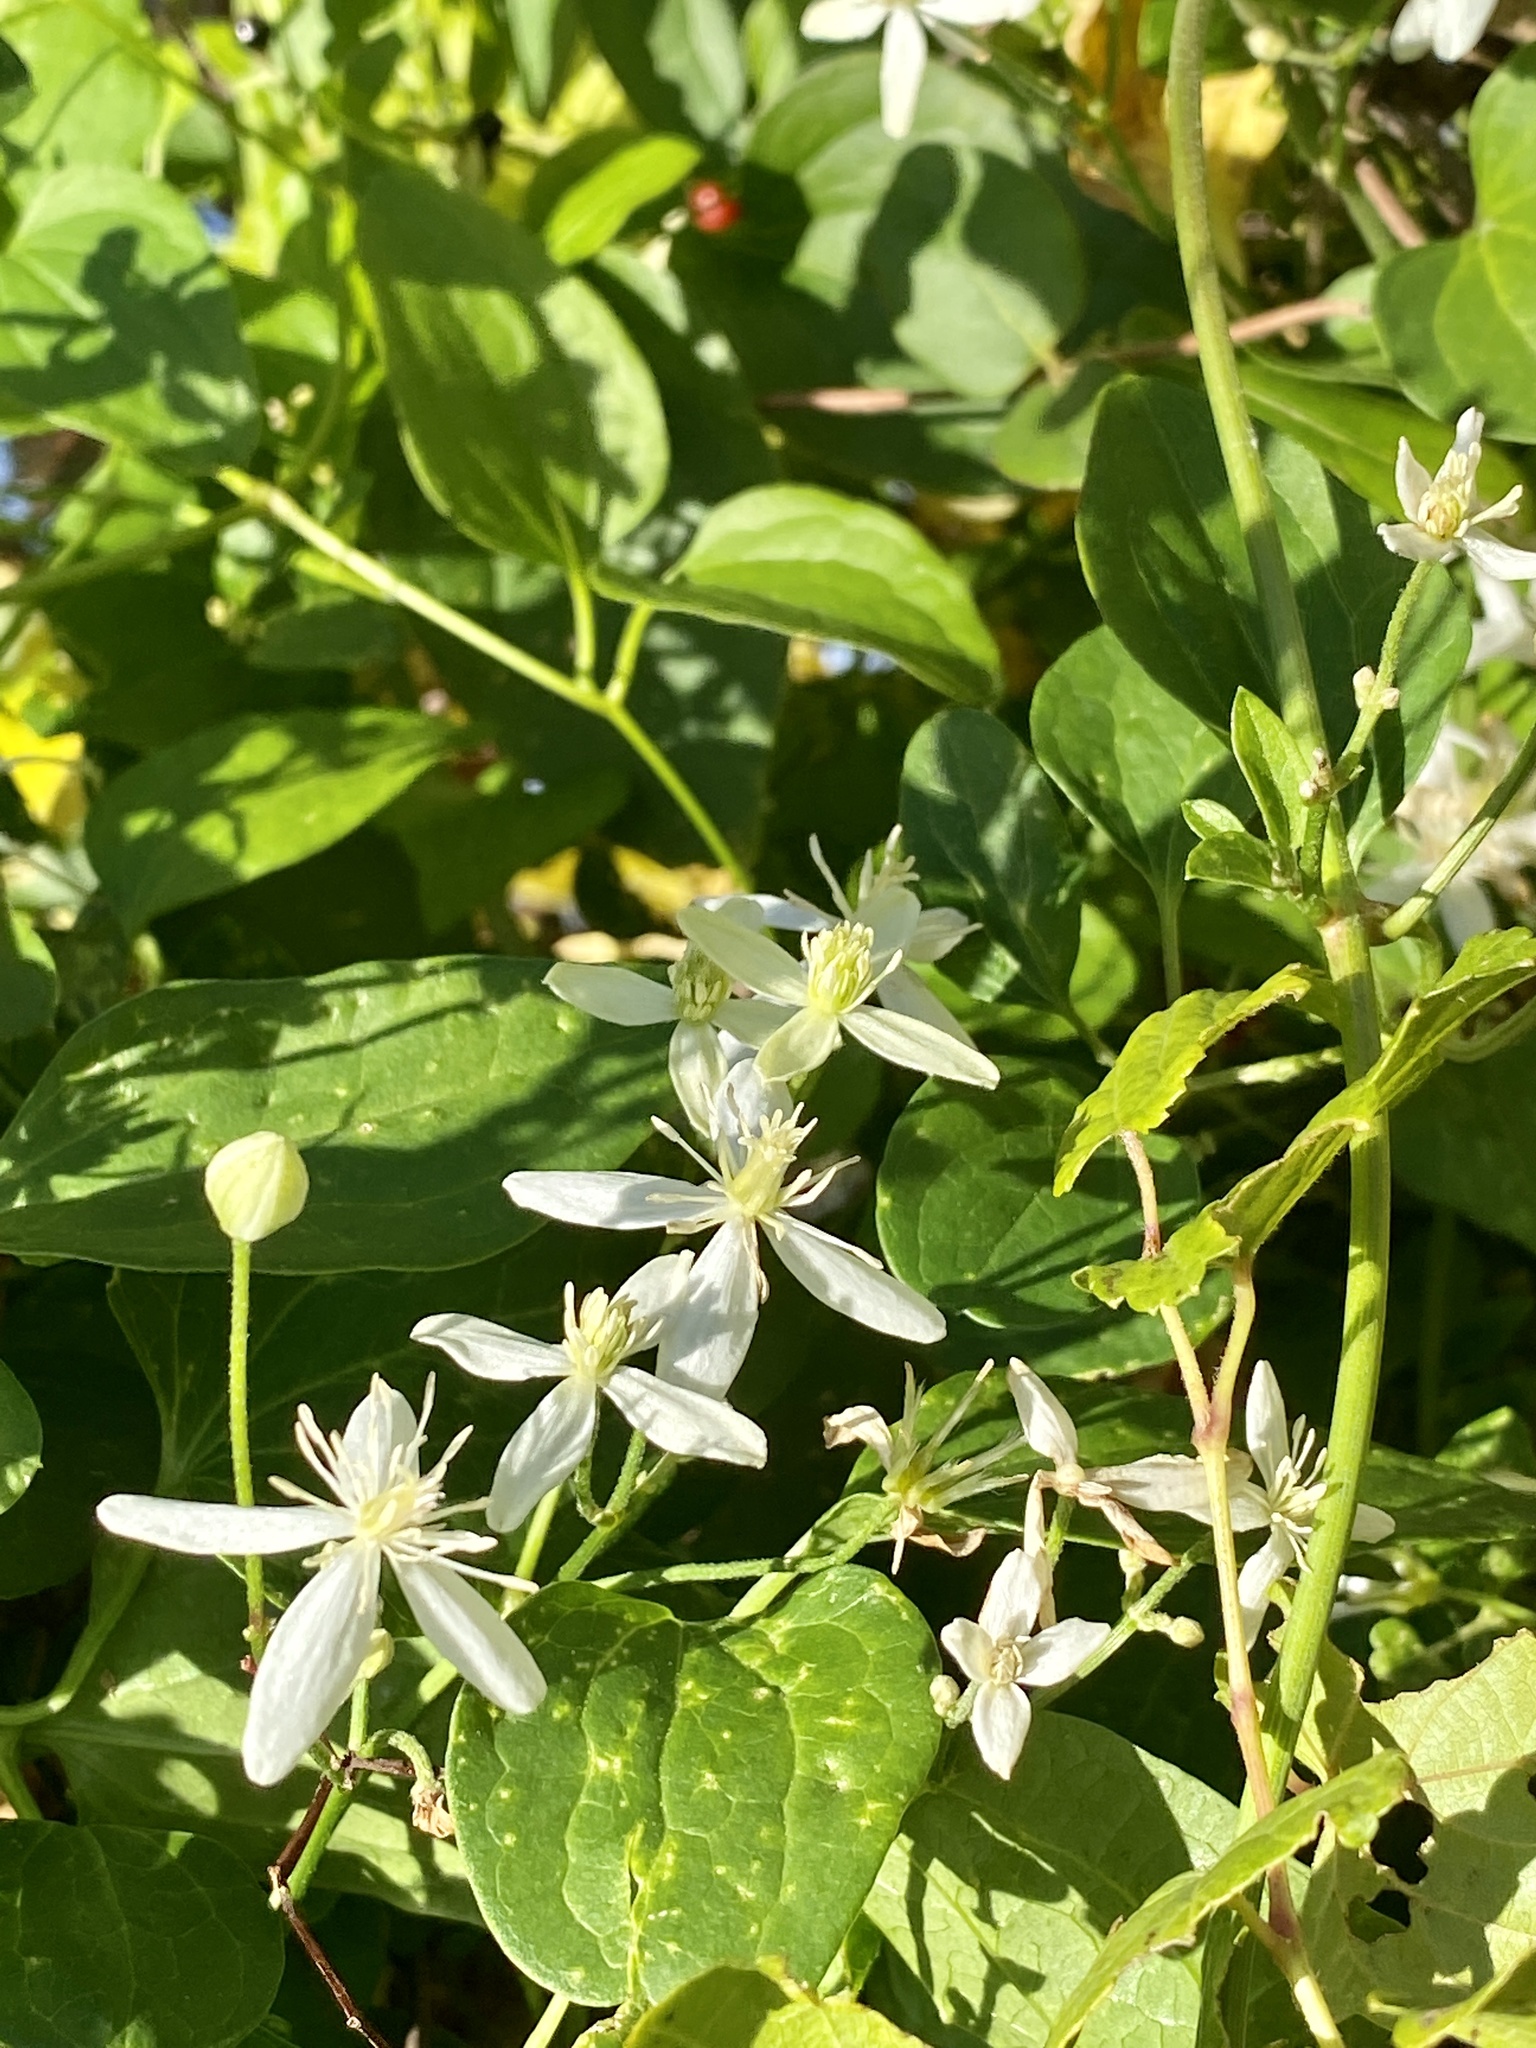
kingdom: Plantae
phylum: Tracheophyta
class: Magnoliopsida
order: Ranunculales
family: Ranunculaceae
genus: Clematis
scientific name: Clematis terniflora
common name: Sweet autumn clematis
